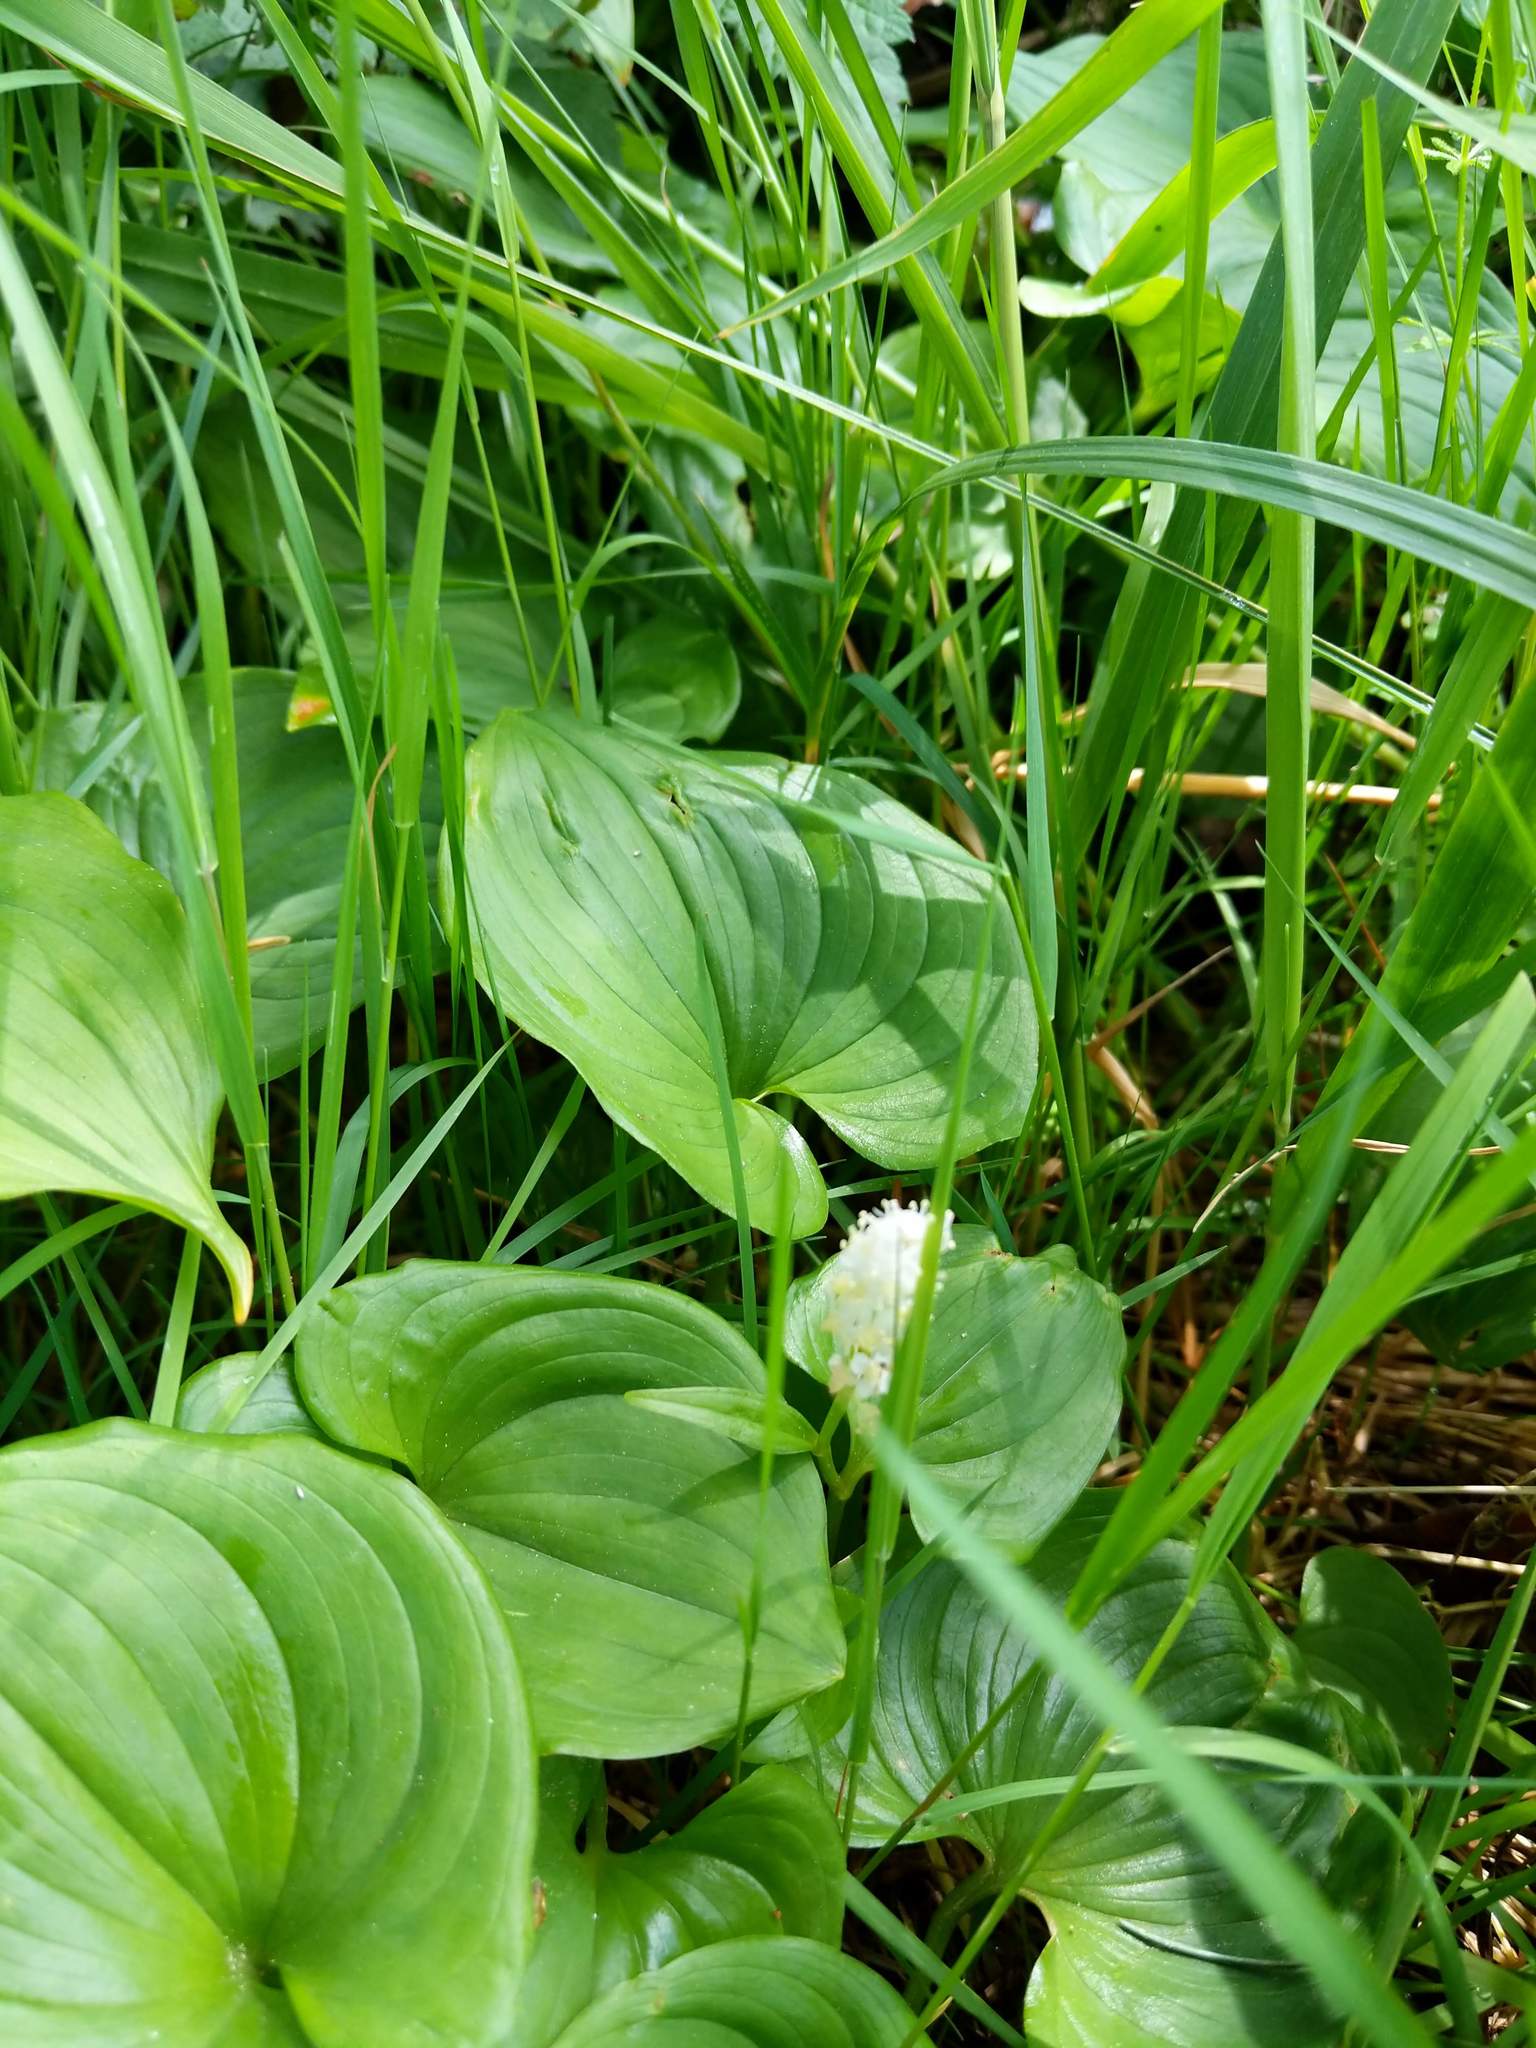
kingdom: Plantae
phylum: Tracheophyta
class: Liliopsida
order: Asparagales
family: Asparagaceae
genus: Maianthemum
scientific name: Maianthemum dilatatum
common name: False lily-of-the-valley
